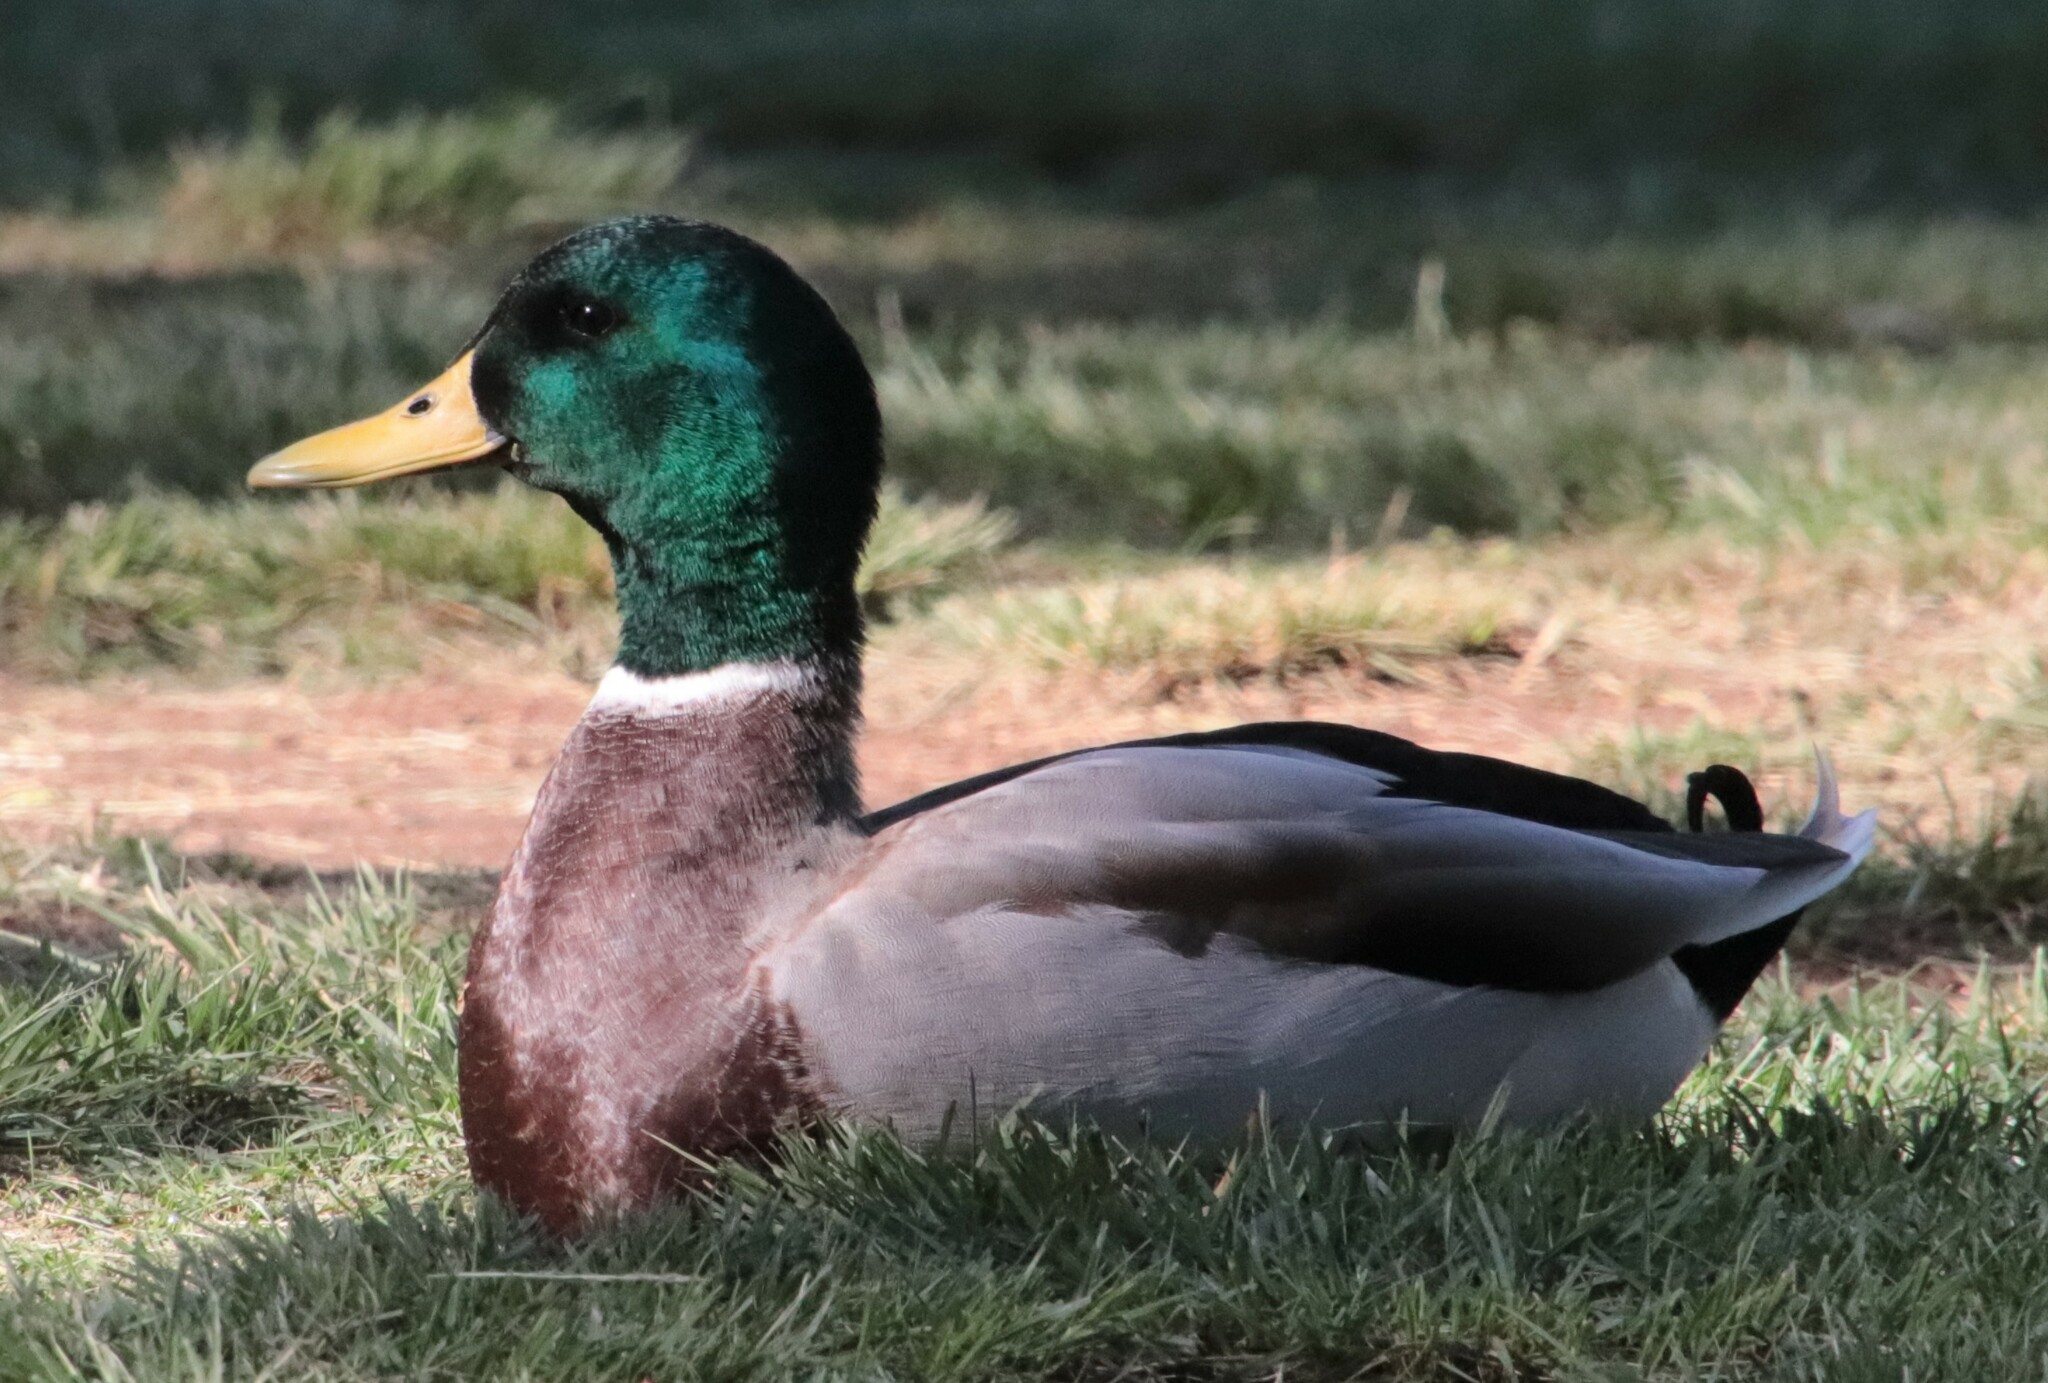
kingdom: Animalia
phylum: Chordata
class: Aves
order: Anseriformes
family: Anatidae
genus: Anas
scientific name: Anas platyrhynchos
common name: Mallard
